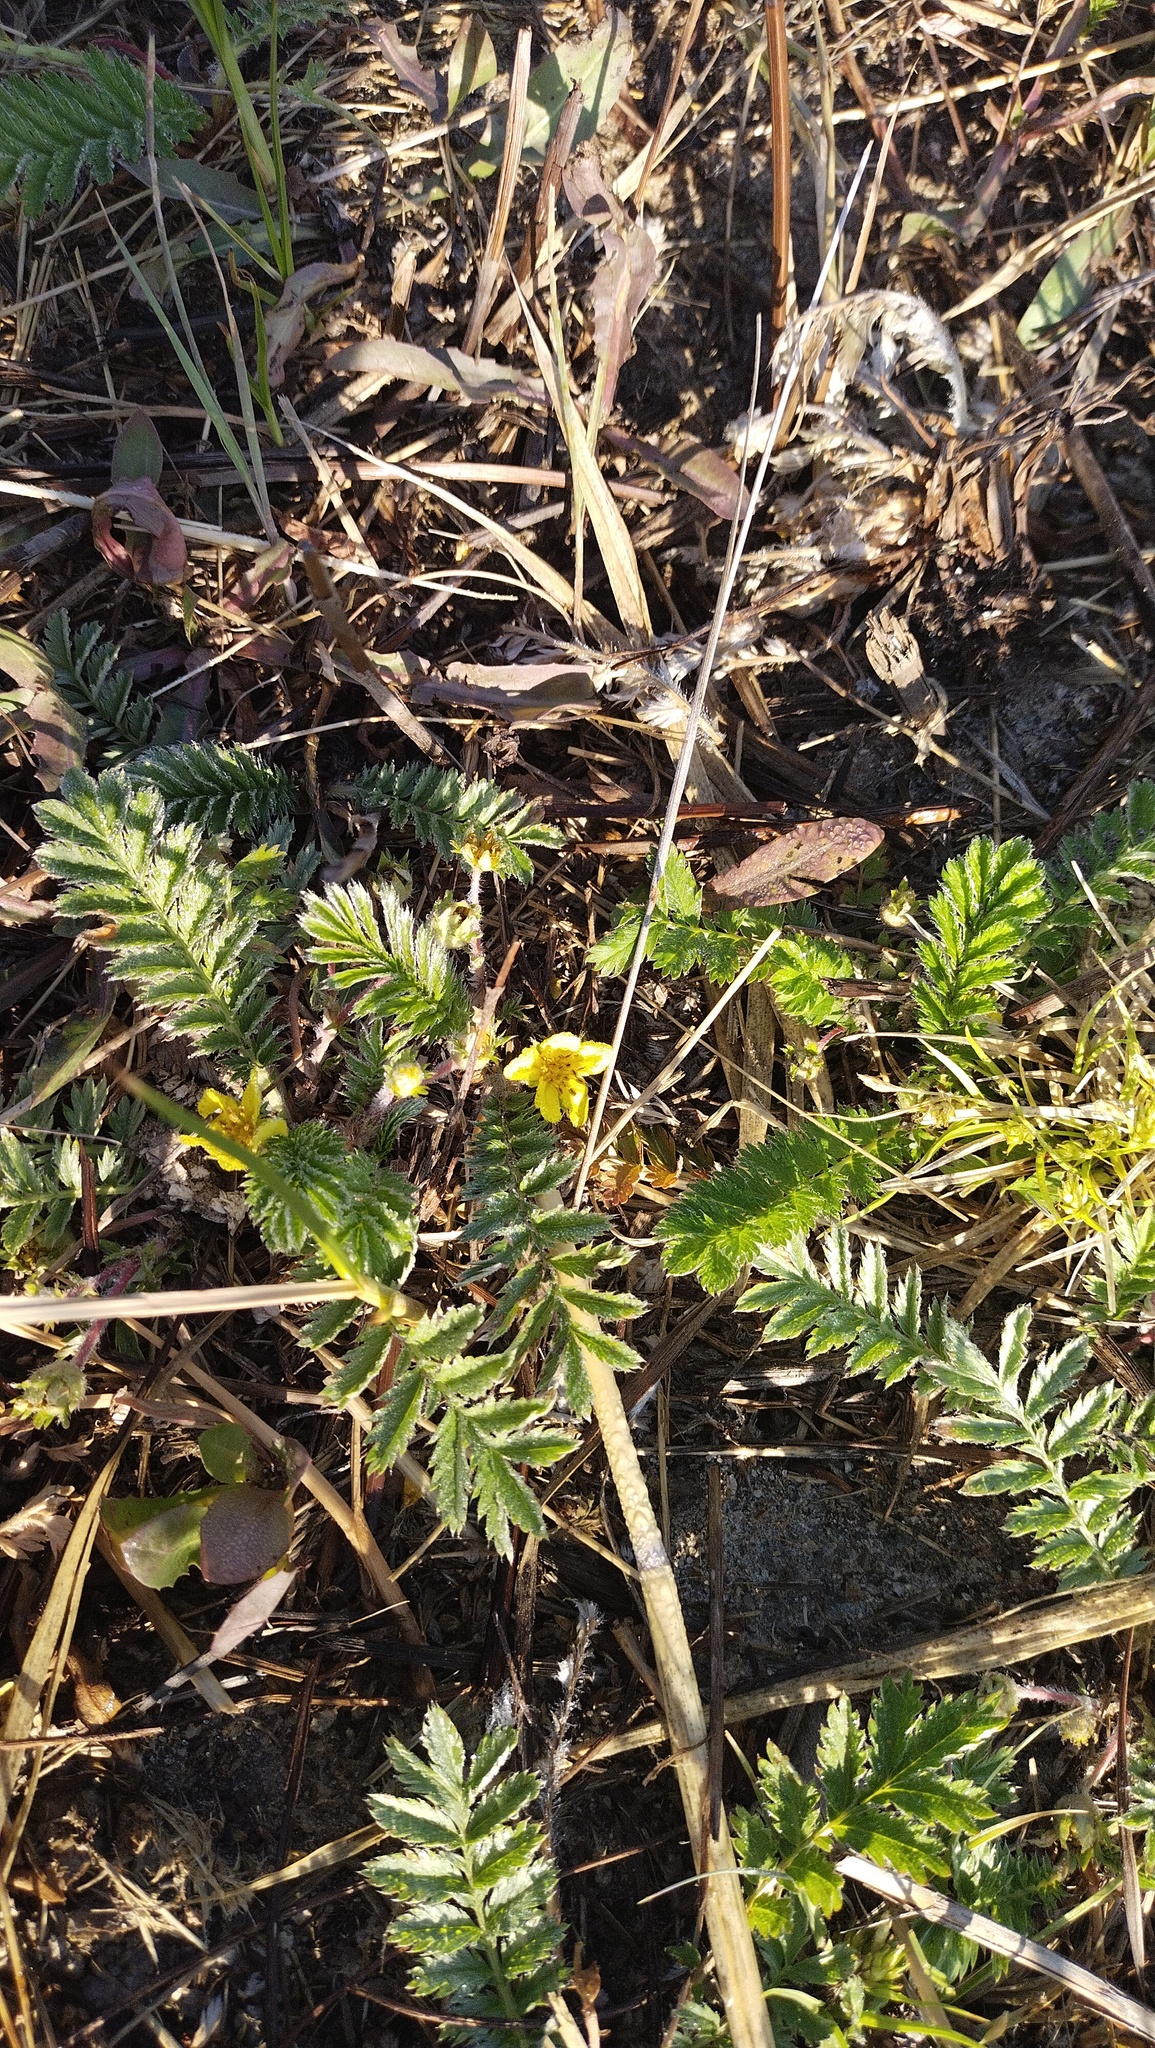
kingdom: Plantae
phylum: Tracheophyta
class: Magnoliopsida
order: Rosales
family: Rosaceae
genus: Argentina
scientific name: Argentina anserina
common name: Common silverweed
